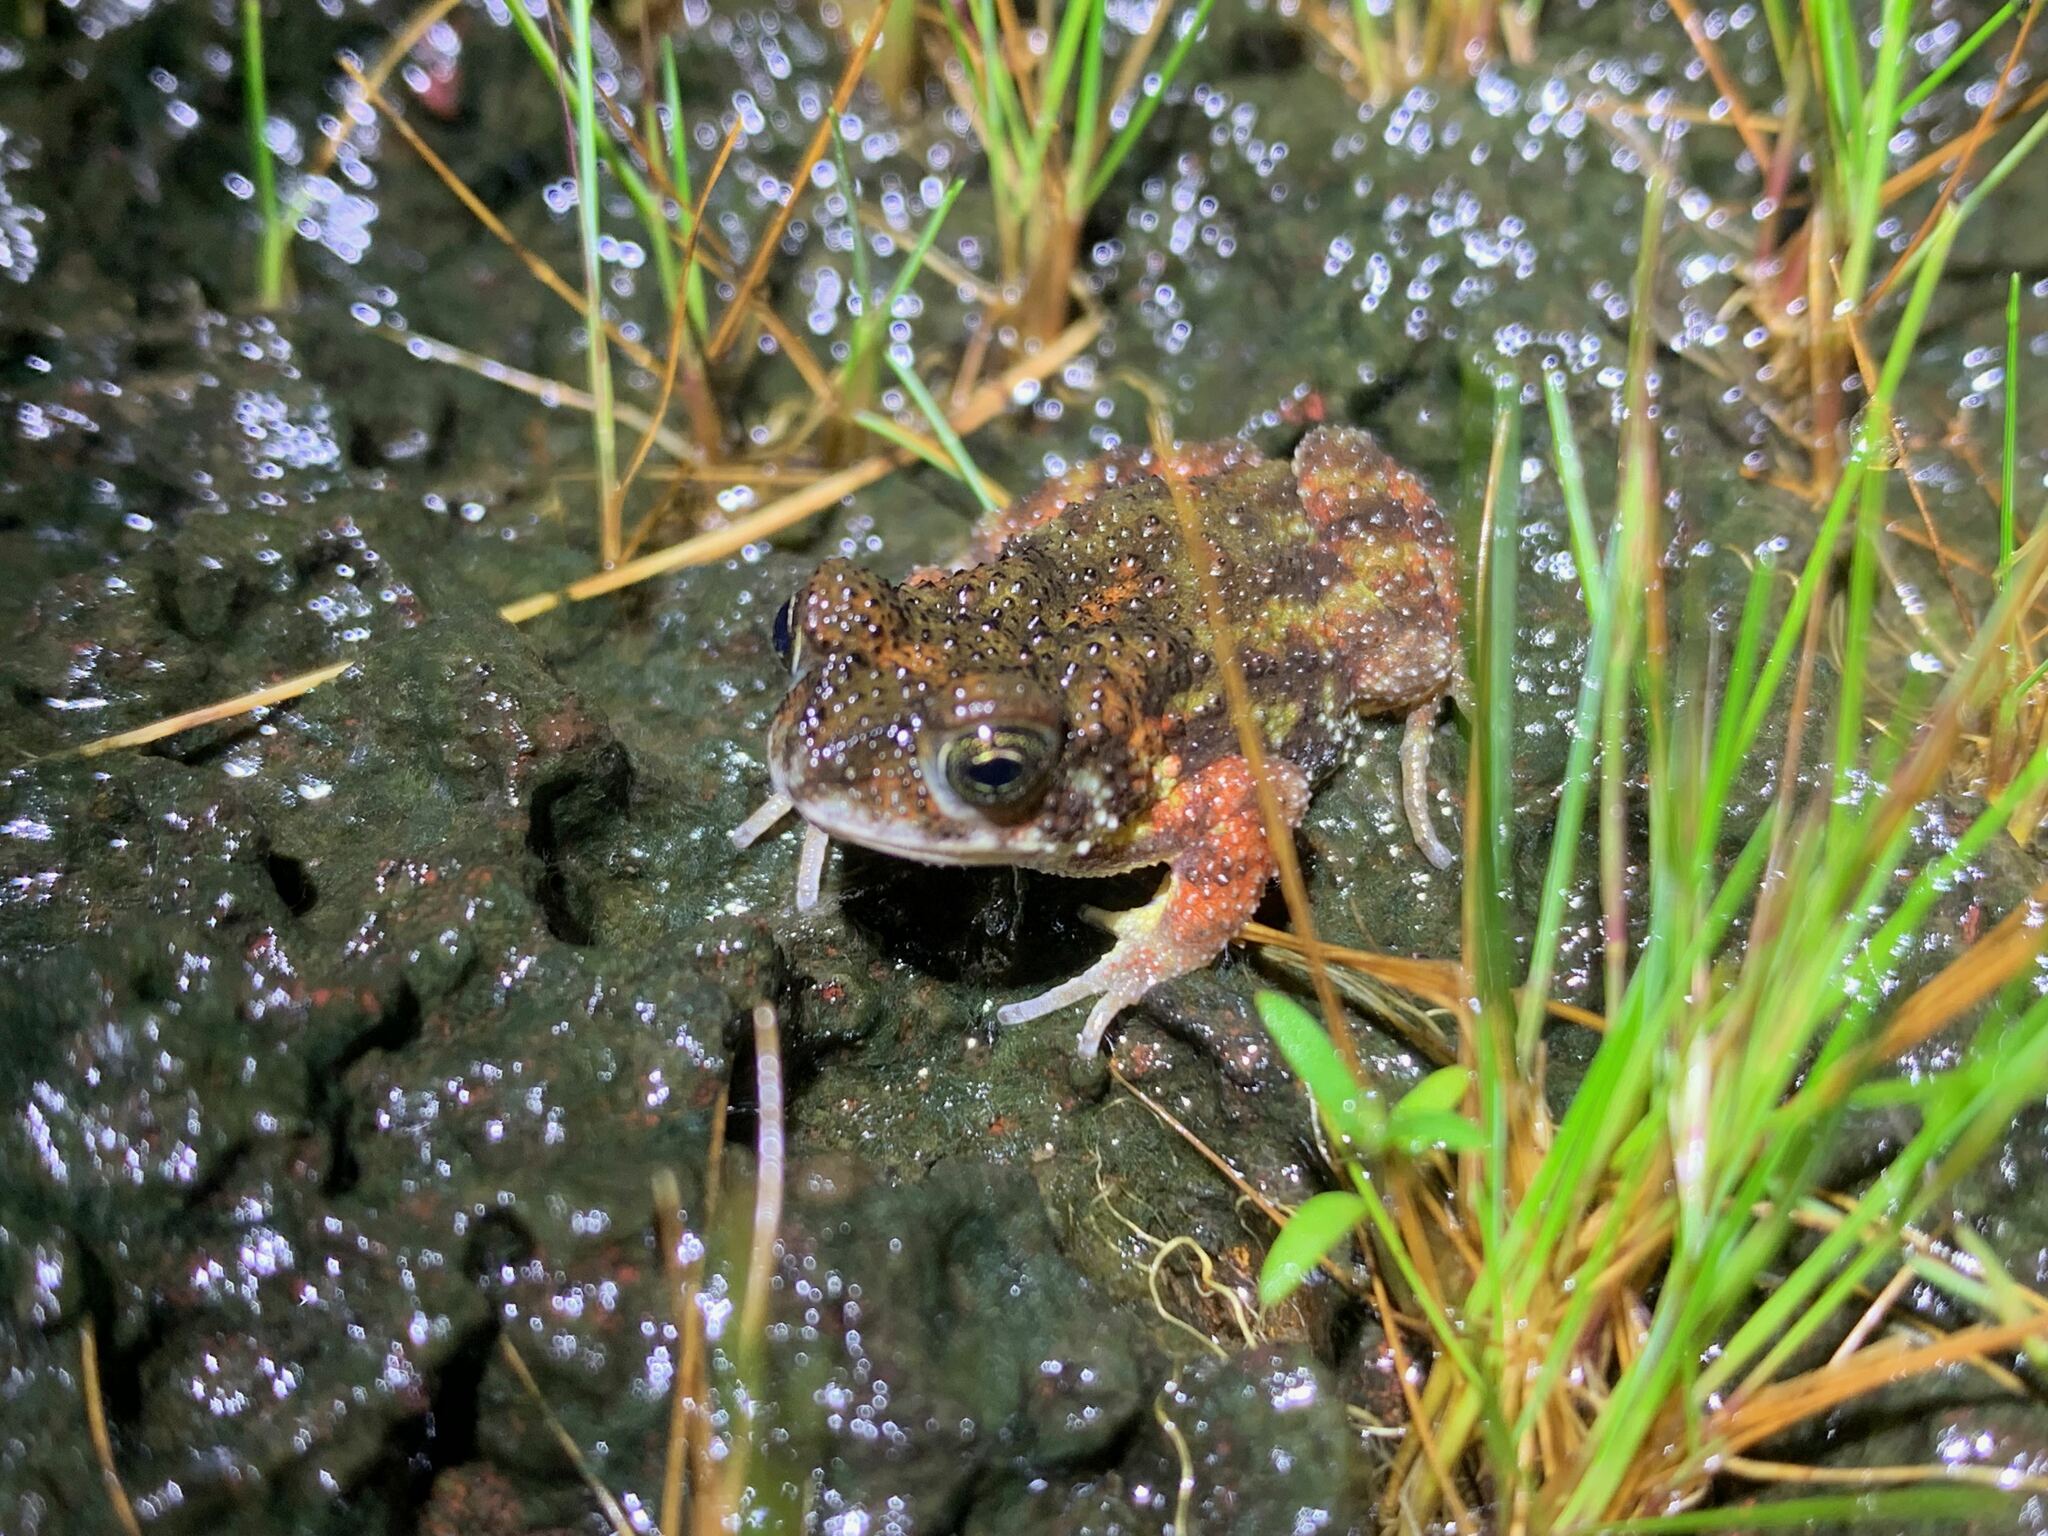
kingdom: Animalia
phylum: Chordata
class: Amphibia
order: Anura
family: Bufonidae
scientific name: Bufonidae
